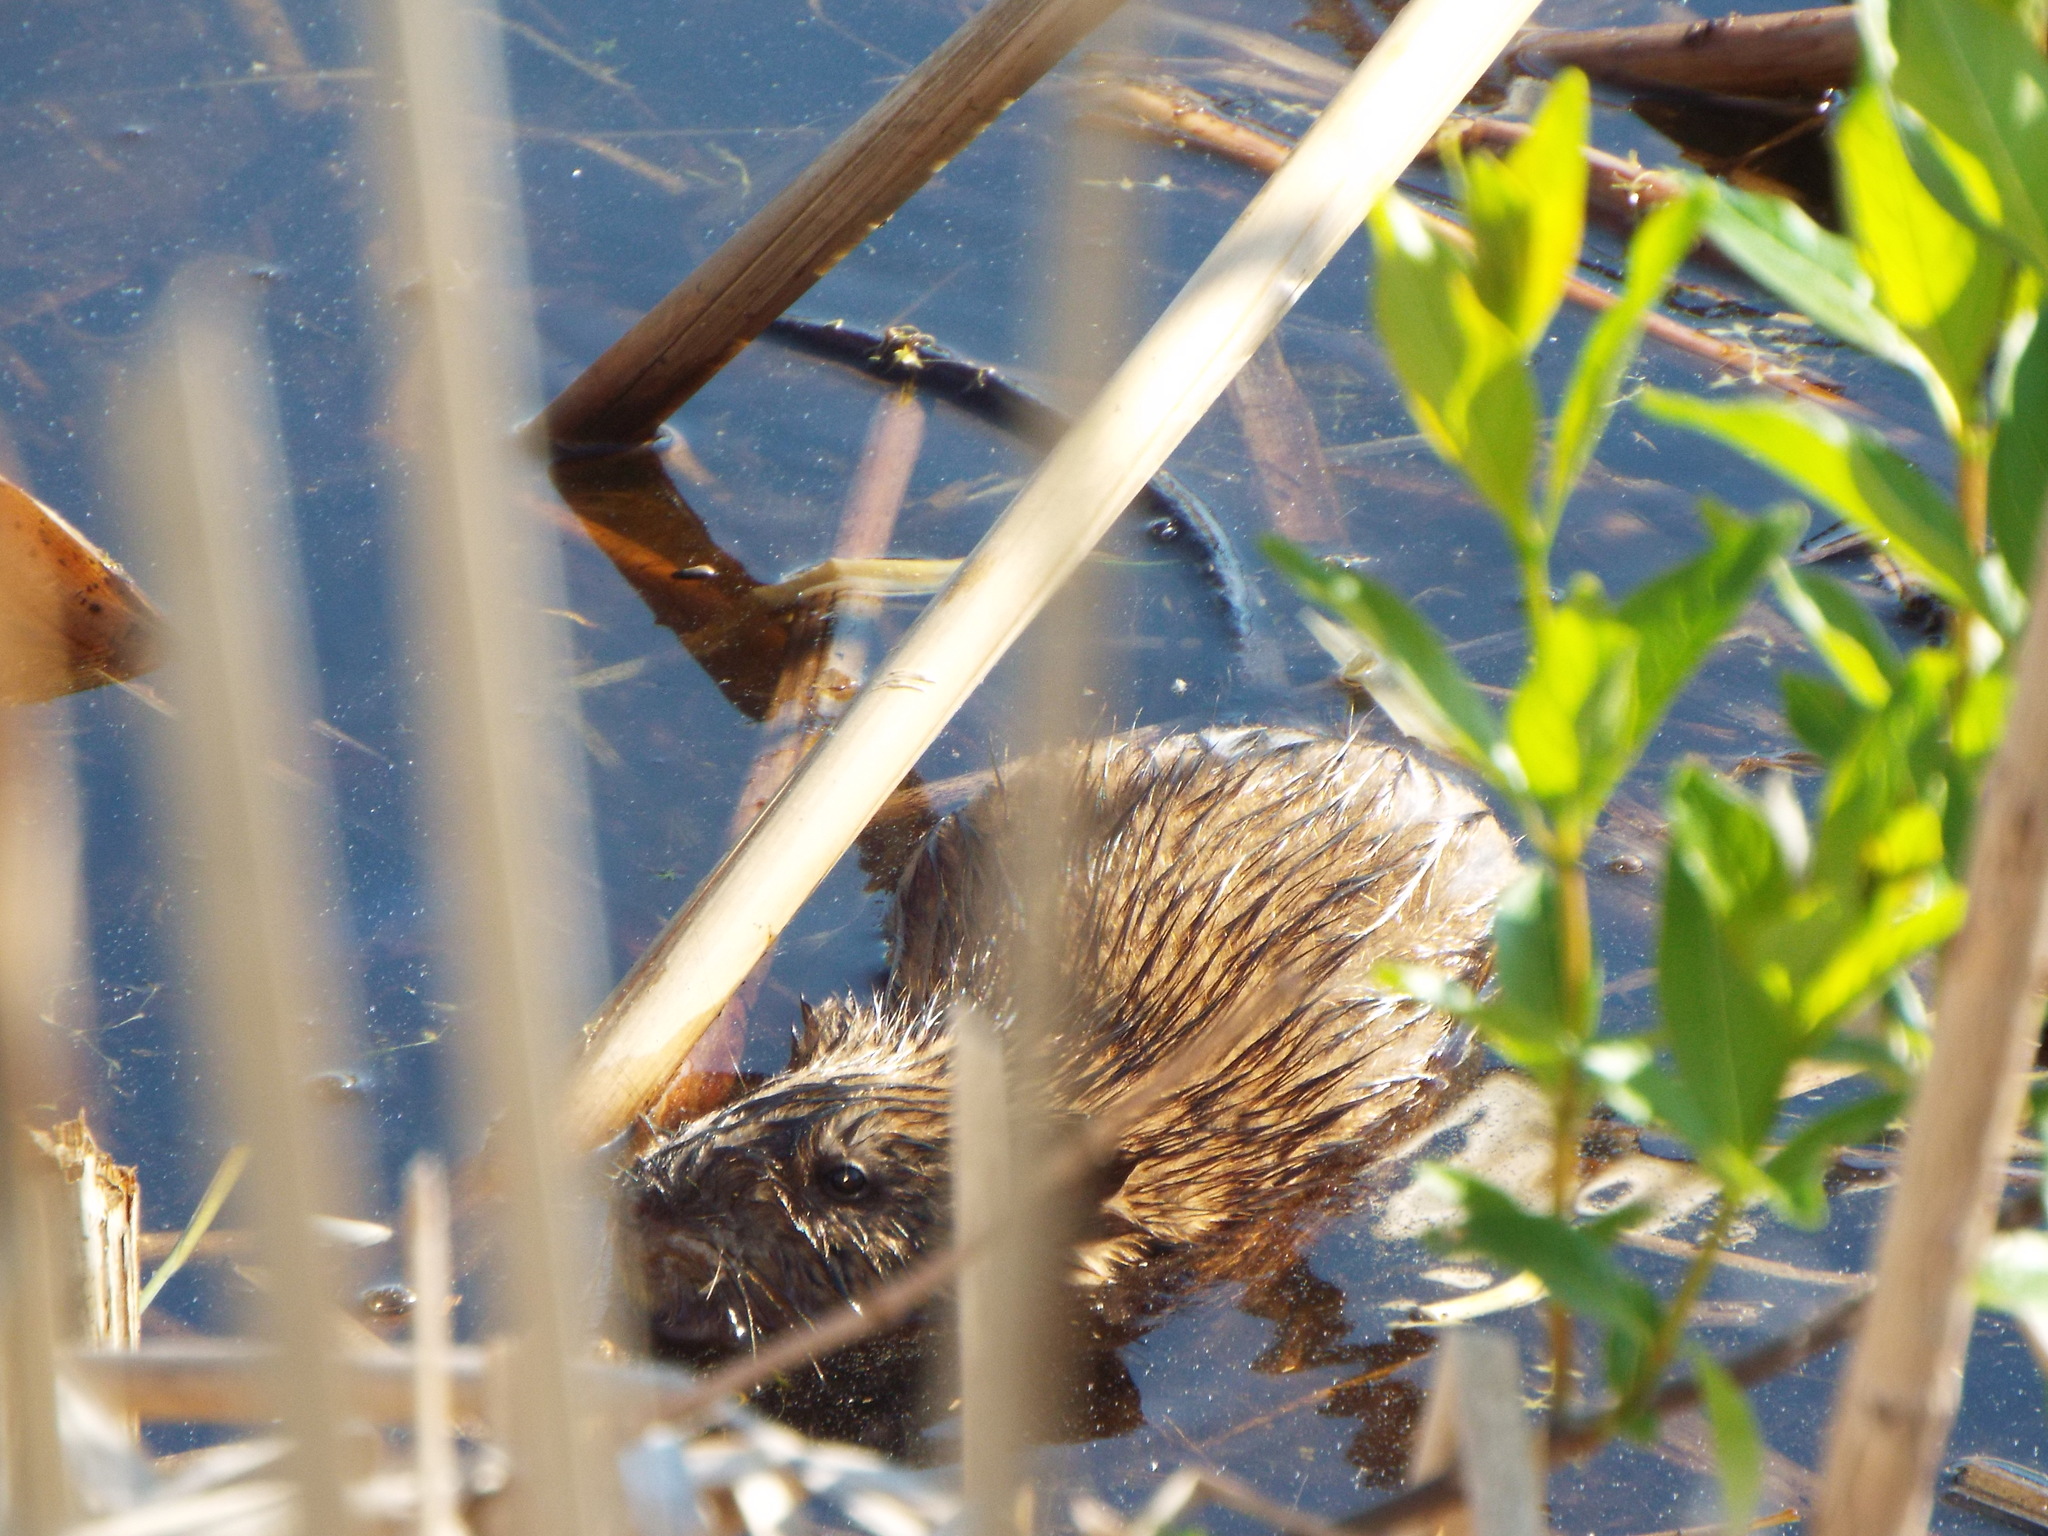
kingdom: Animalia
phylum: Chordata
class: Mammalia
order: Rodentia
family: Cricetidae
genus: Ondatra
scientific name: Ondatra zibethicus
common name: Muskrat
